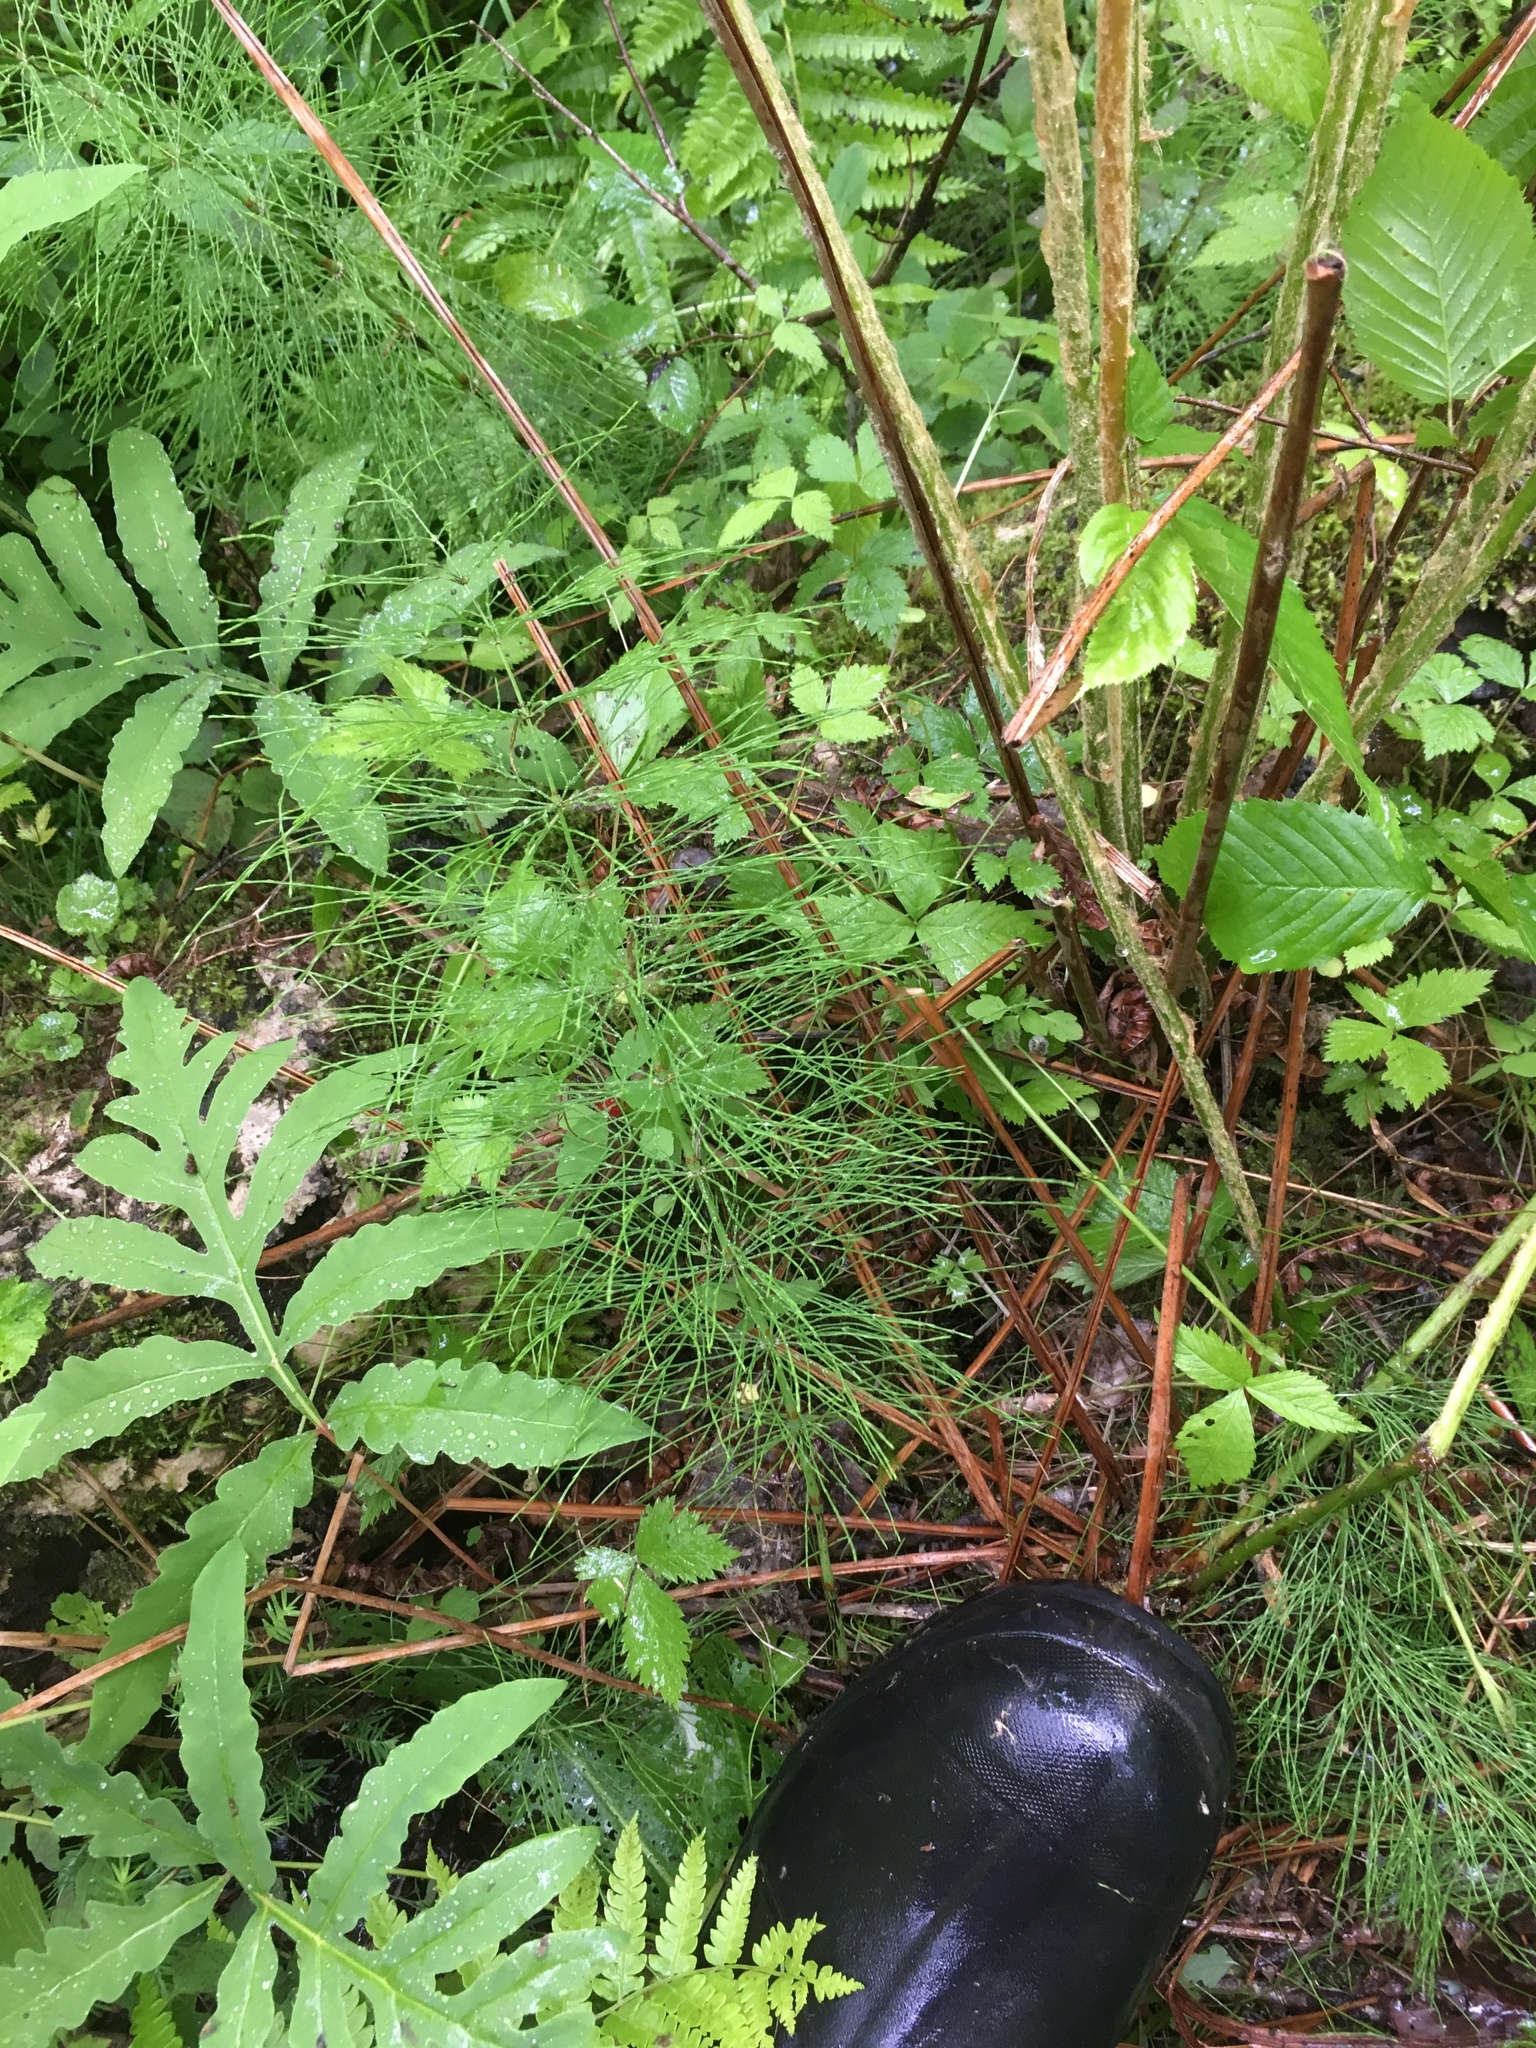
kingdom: Plantae
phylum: Tracheophyta
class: Polypodiopsida
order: Equisetales
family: Equisetaceae
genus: Equisetum
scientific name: Equisetum sylvaticum
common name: Wood horsetail
